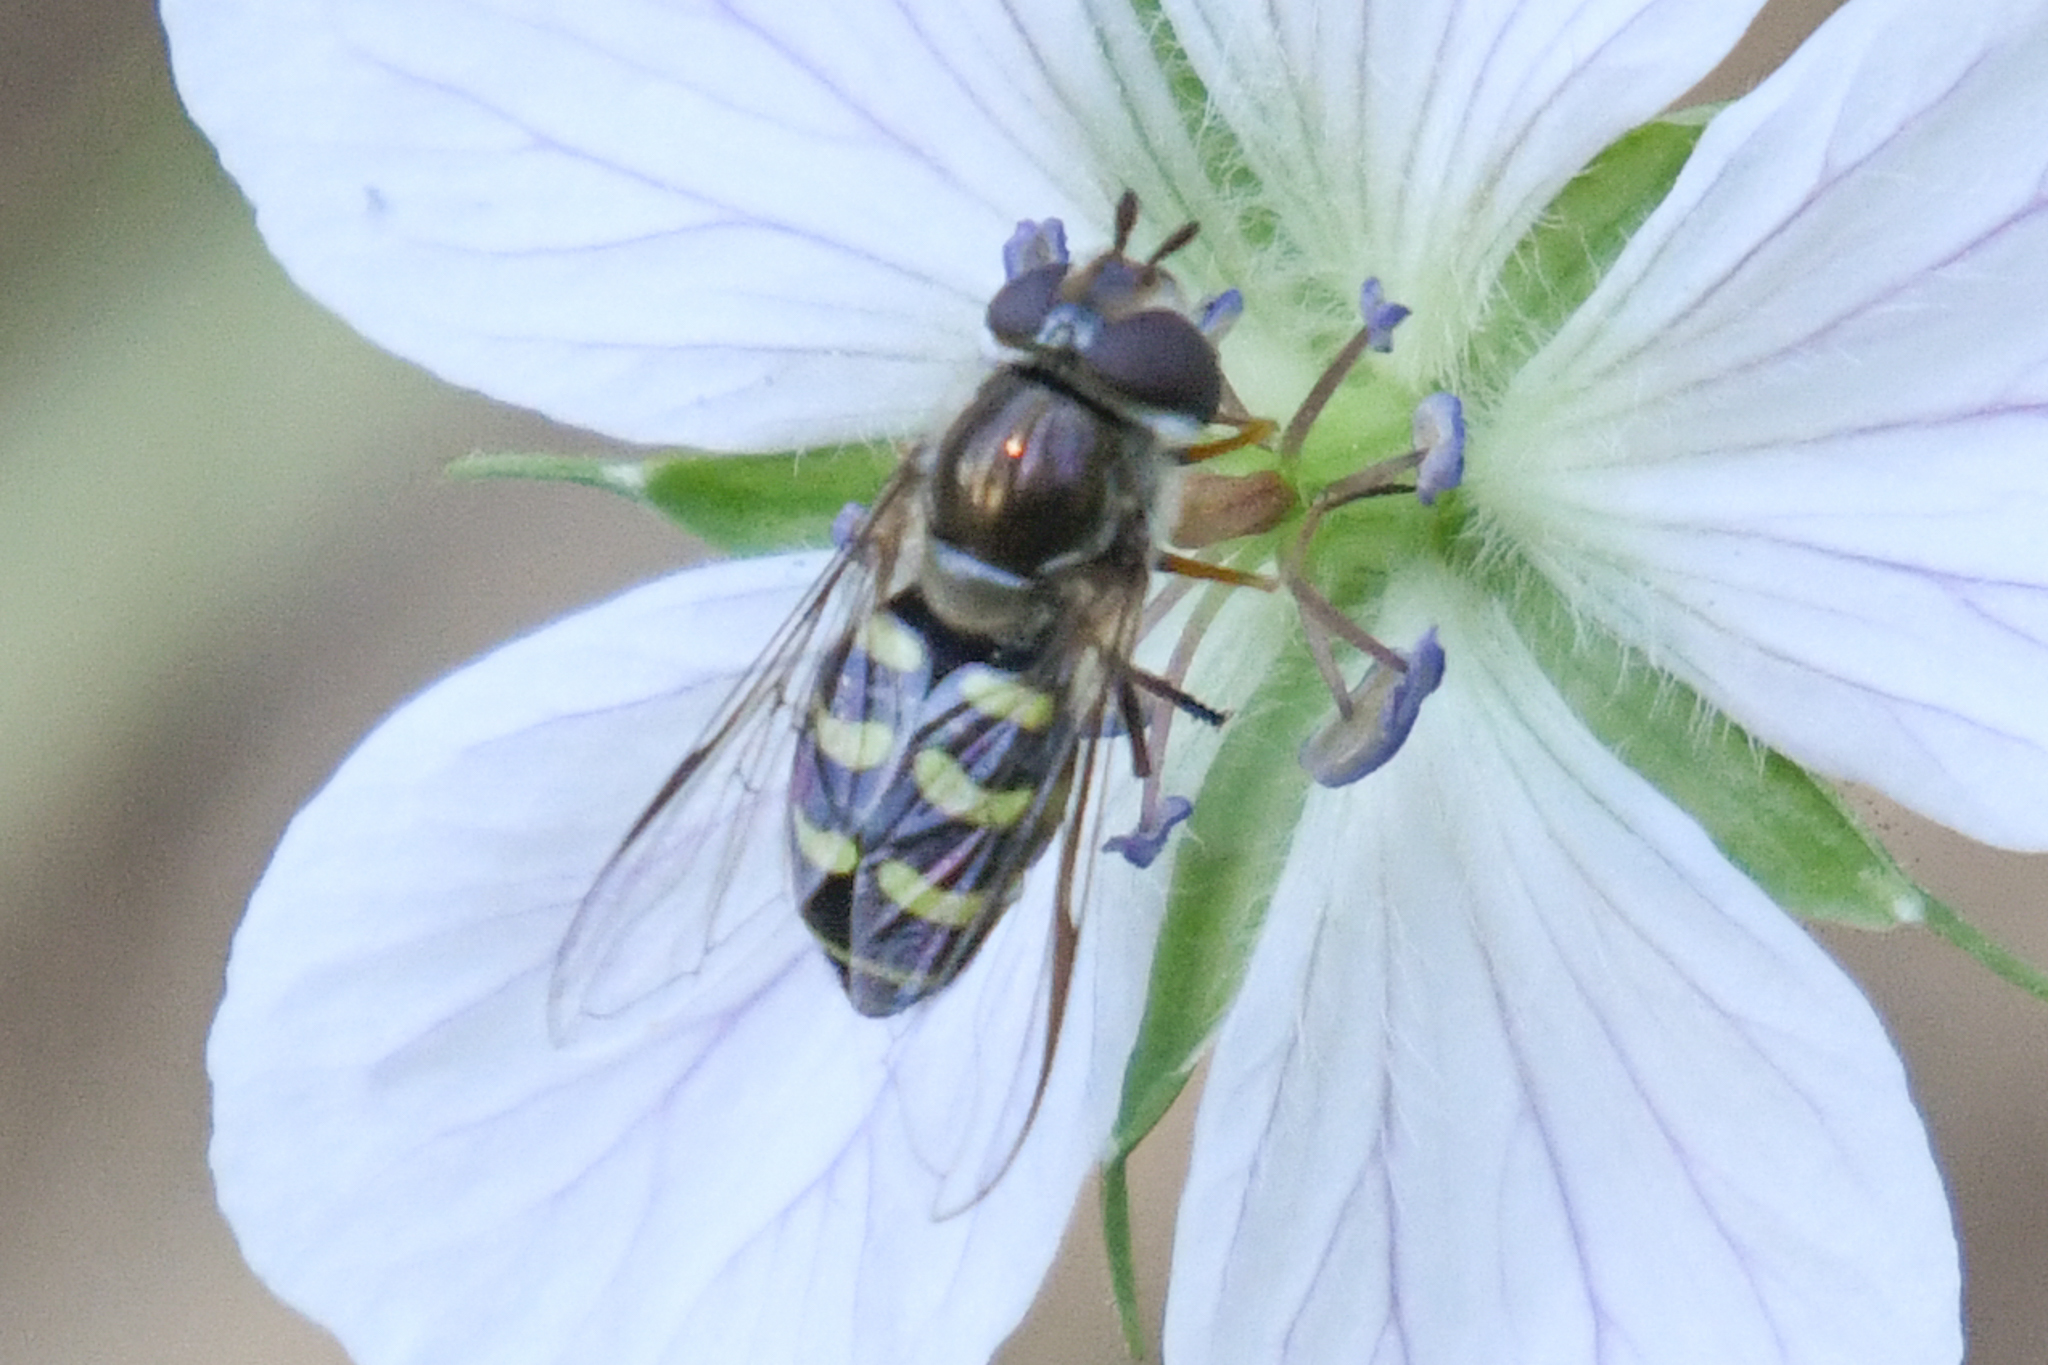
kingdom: Animalia
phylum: Arthropoda
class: Insecta
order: Diptera
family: Syrphidae
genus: Lapposyrphus
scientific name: Lapposyrphus lapponicus
